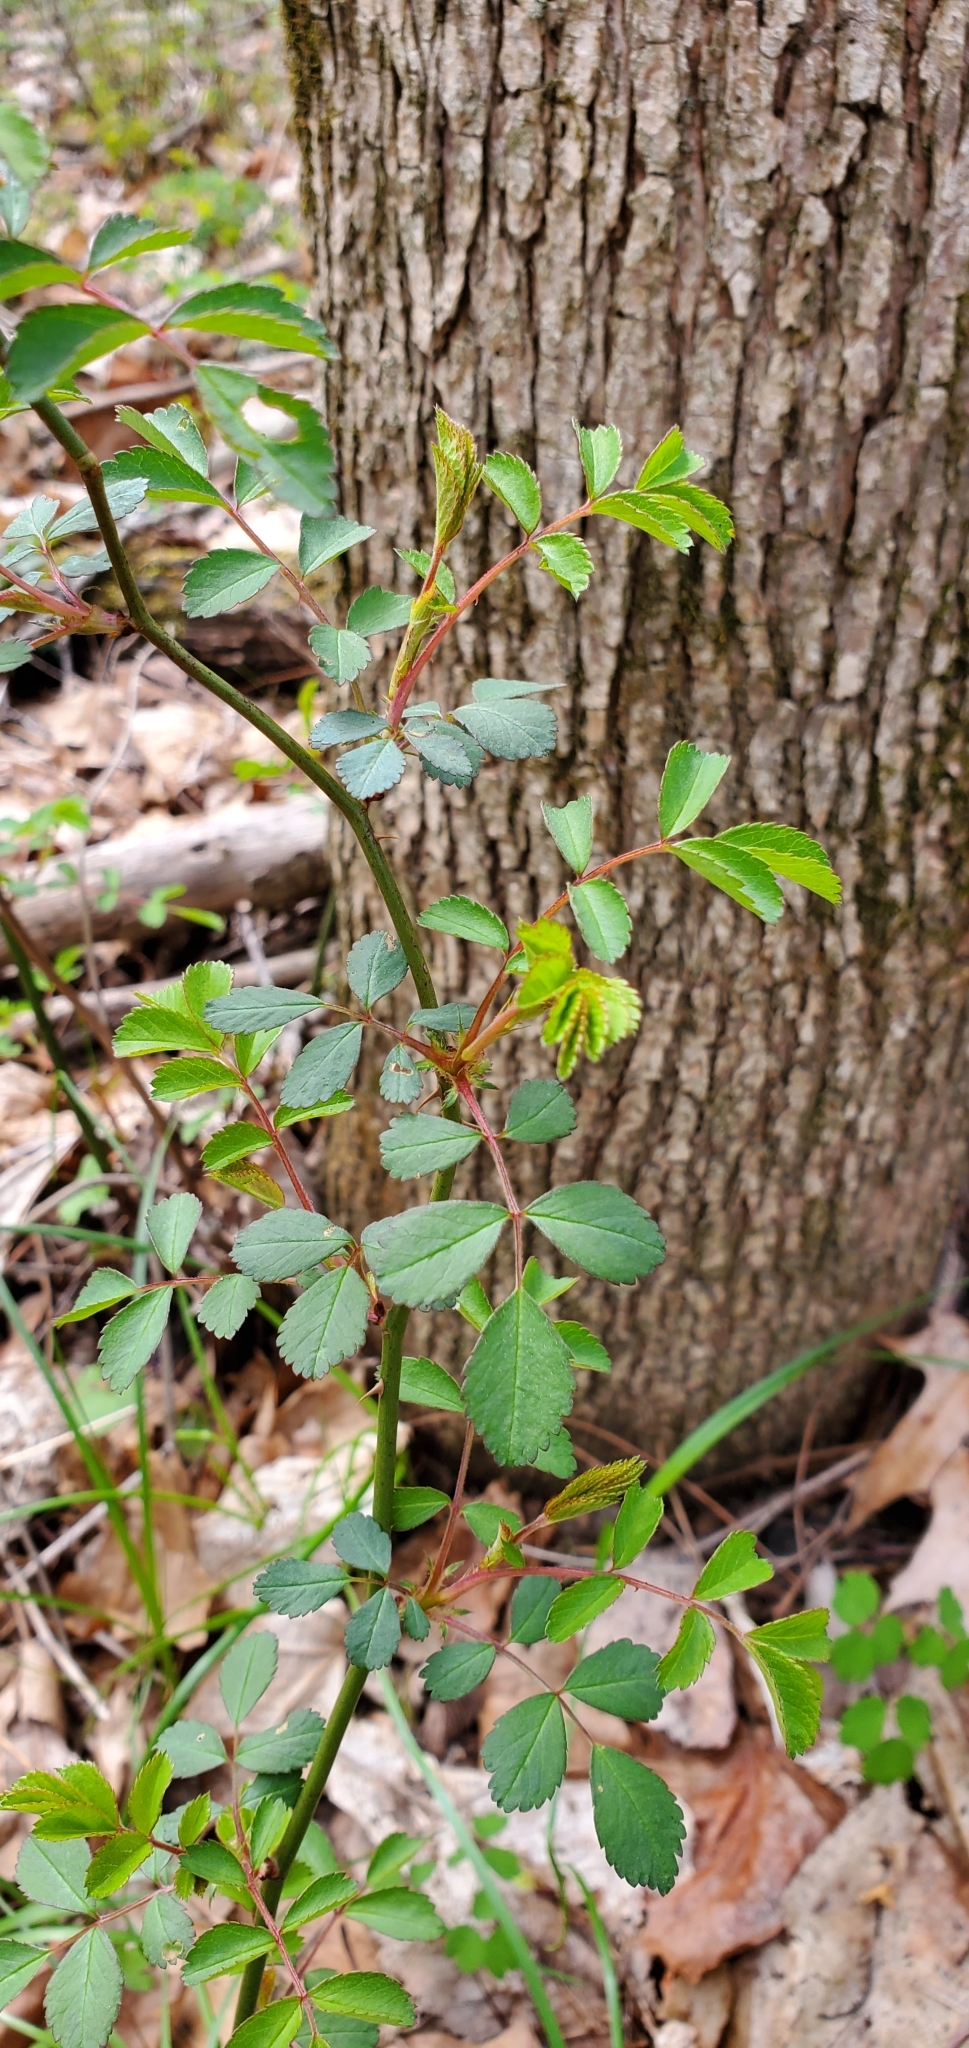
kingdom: Plantae
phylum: Tracheophyta
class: Magnoliopsida
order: Rosales
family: Rosaceae
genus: Rosa
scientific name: Rosa multiflora
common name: Multiflora rose
